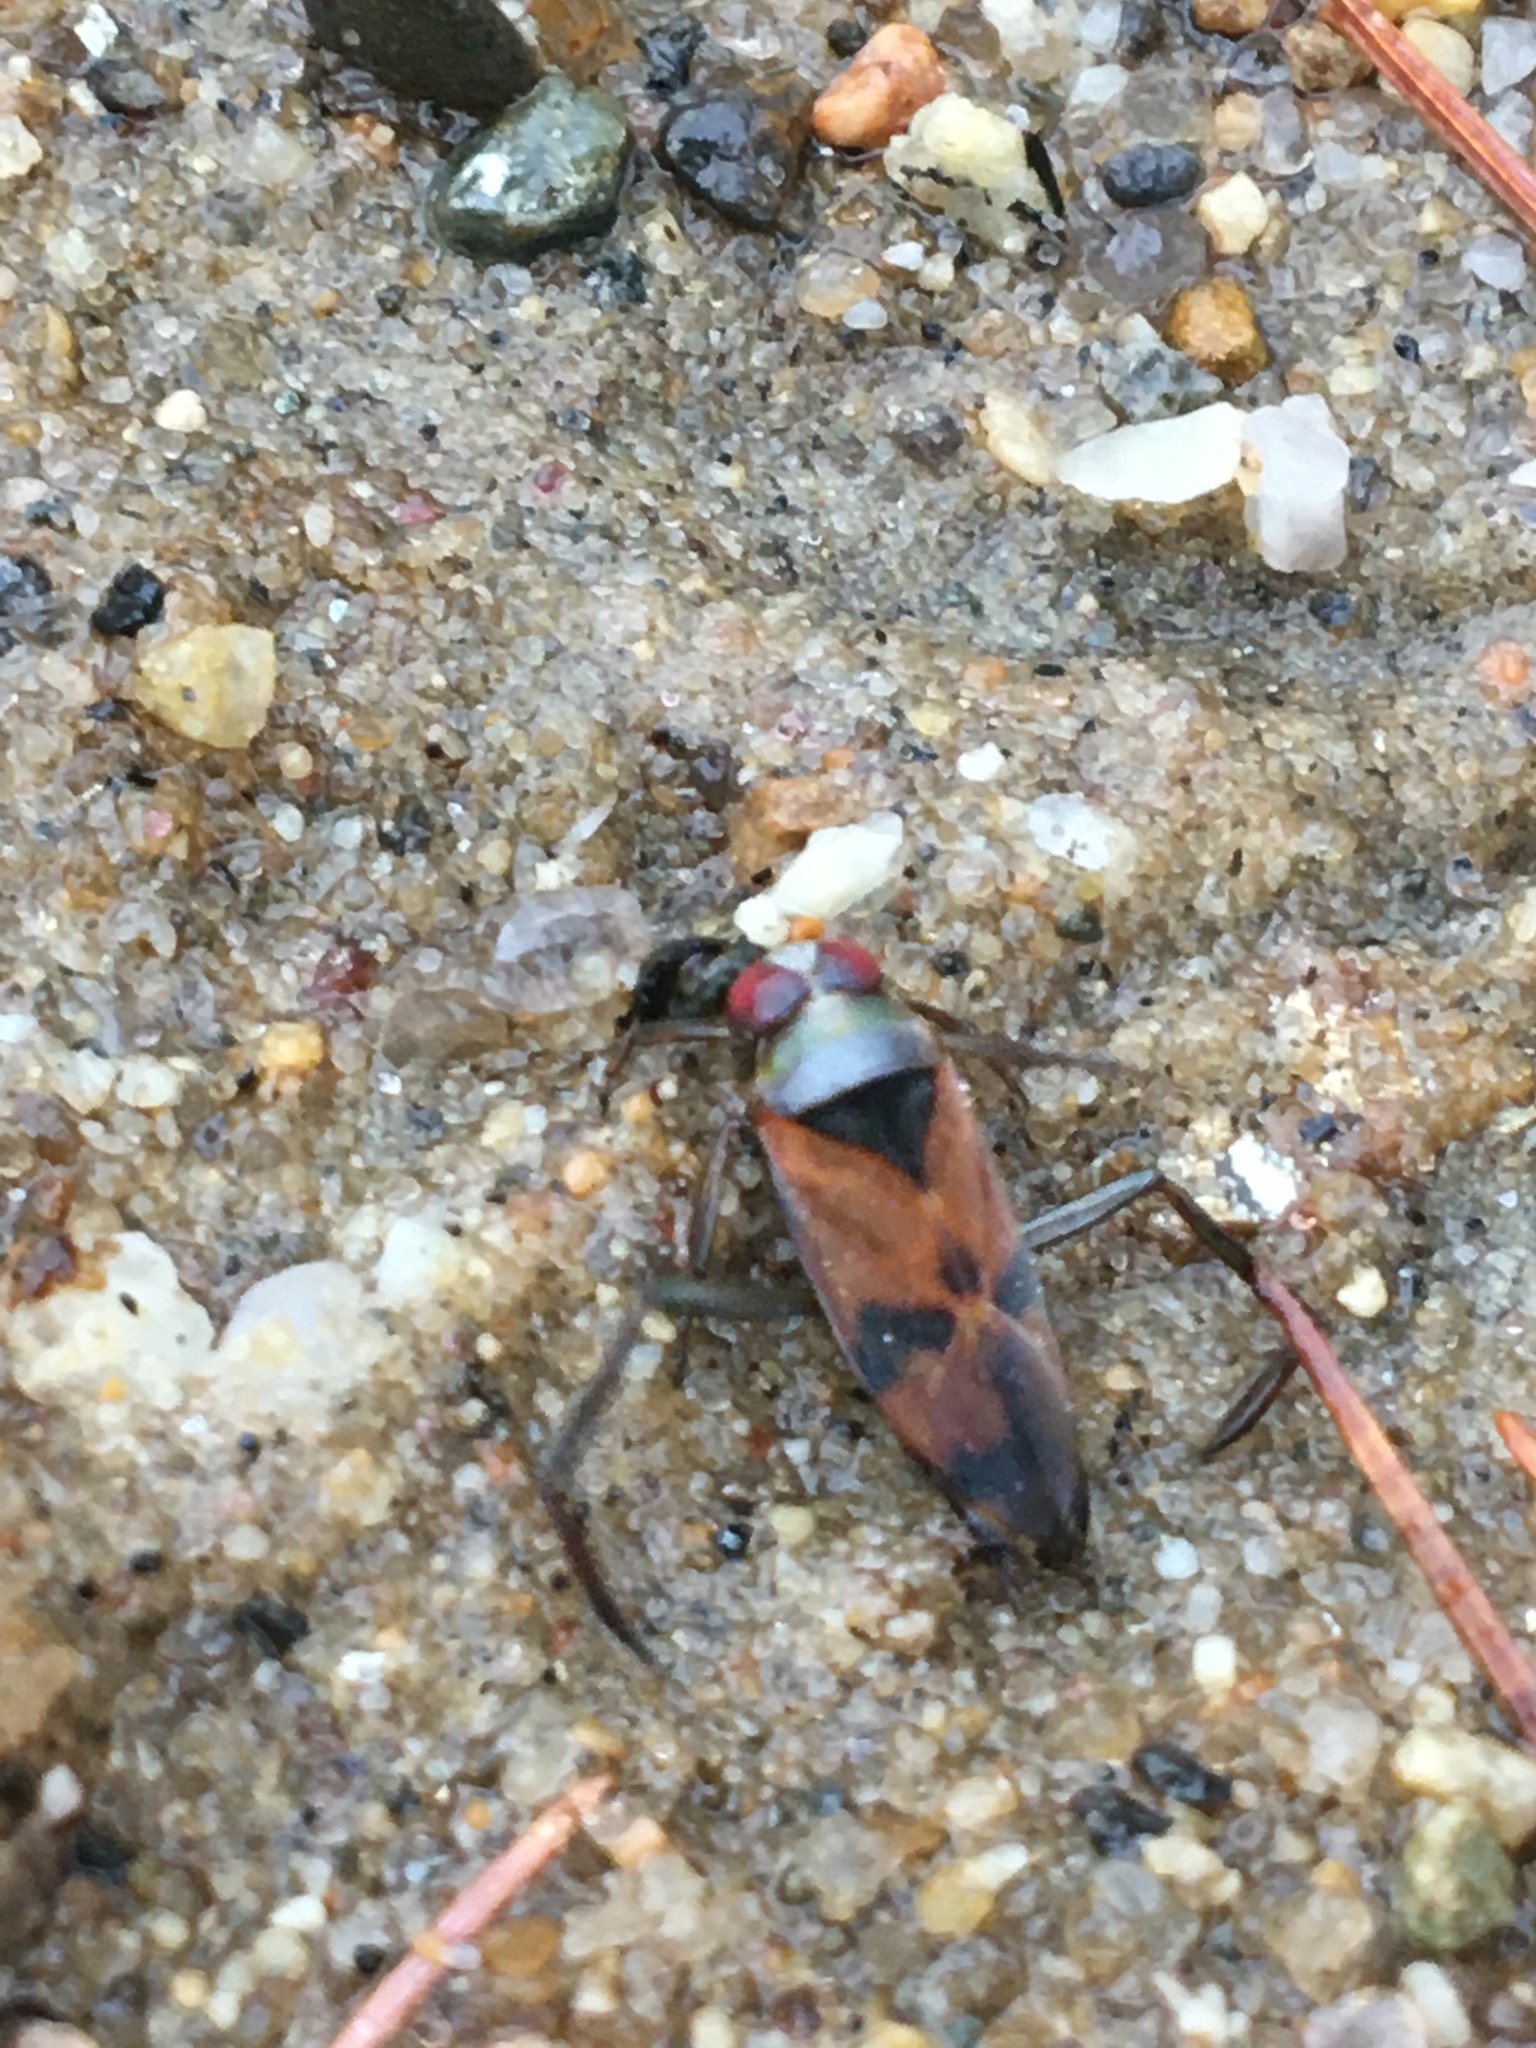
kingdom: Animalia
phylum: Arthropoda
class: Insecta
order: Hemiptera
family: Notonectidae
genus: Notonecta
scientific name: Notonecta uhleri
